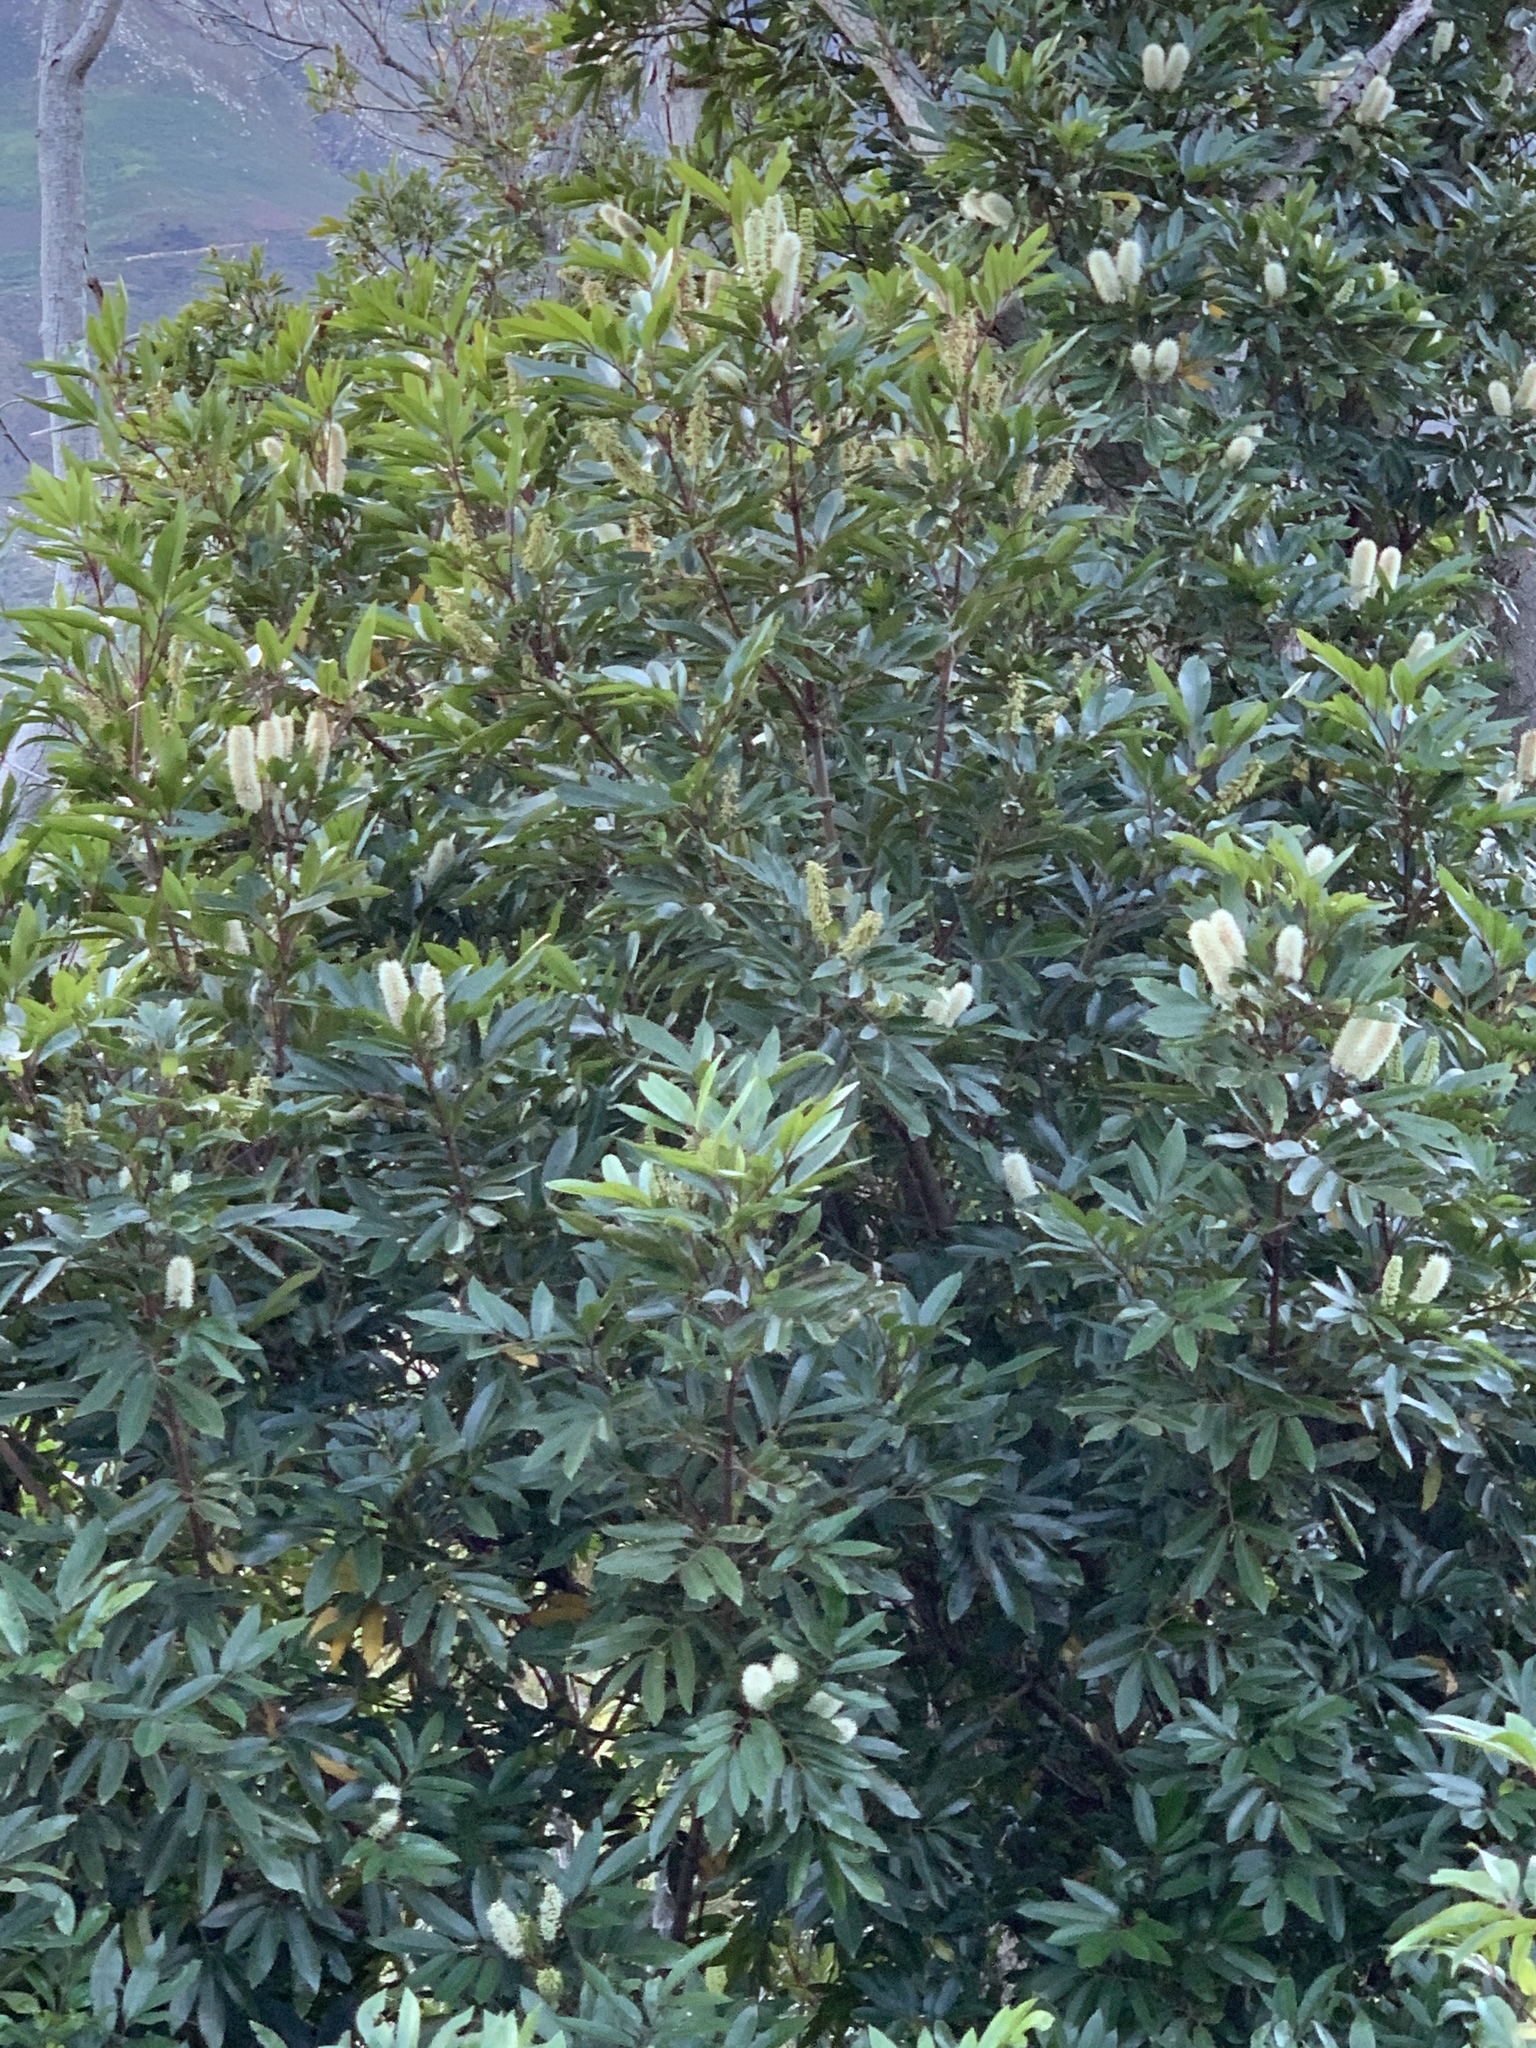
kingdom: Plantae
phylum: Tracheophyta
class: Magnoliopsida
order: Oxalidales
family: Cunoniaceae
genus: Cunonia
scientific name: Cunonia capensis
